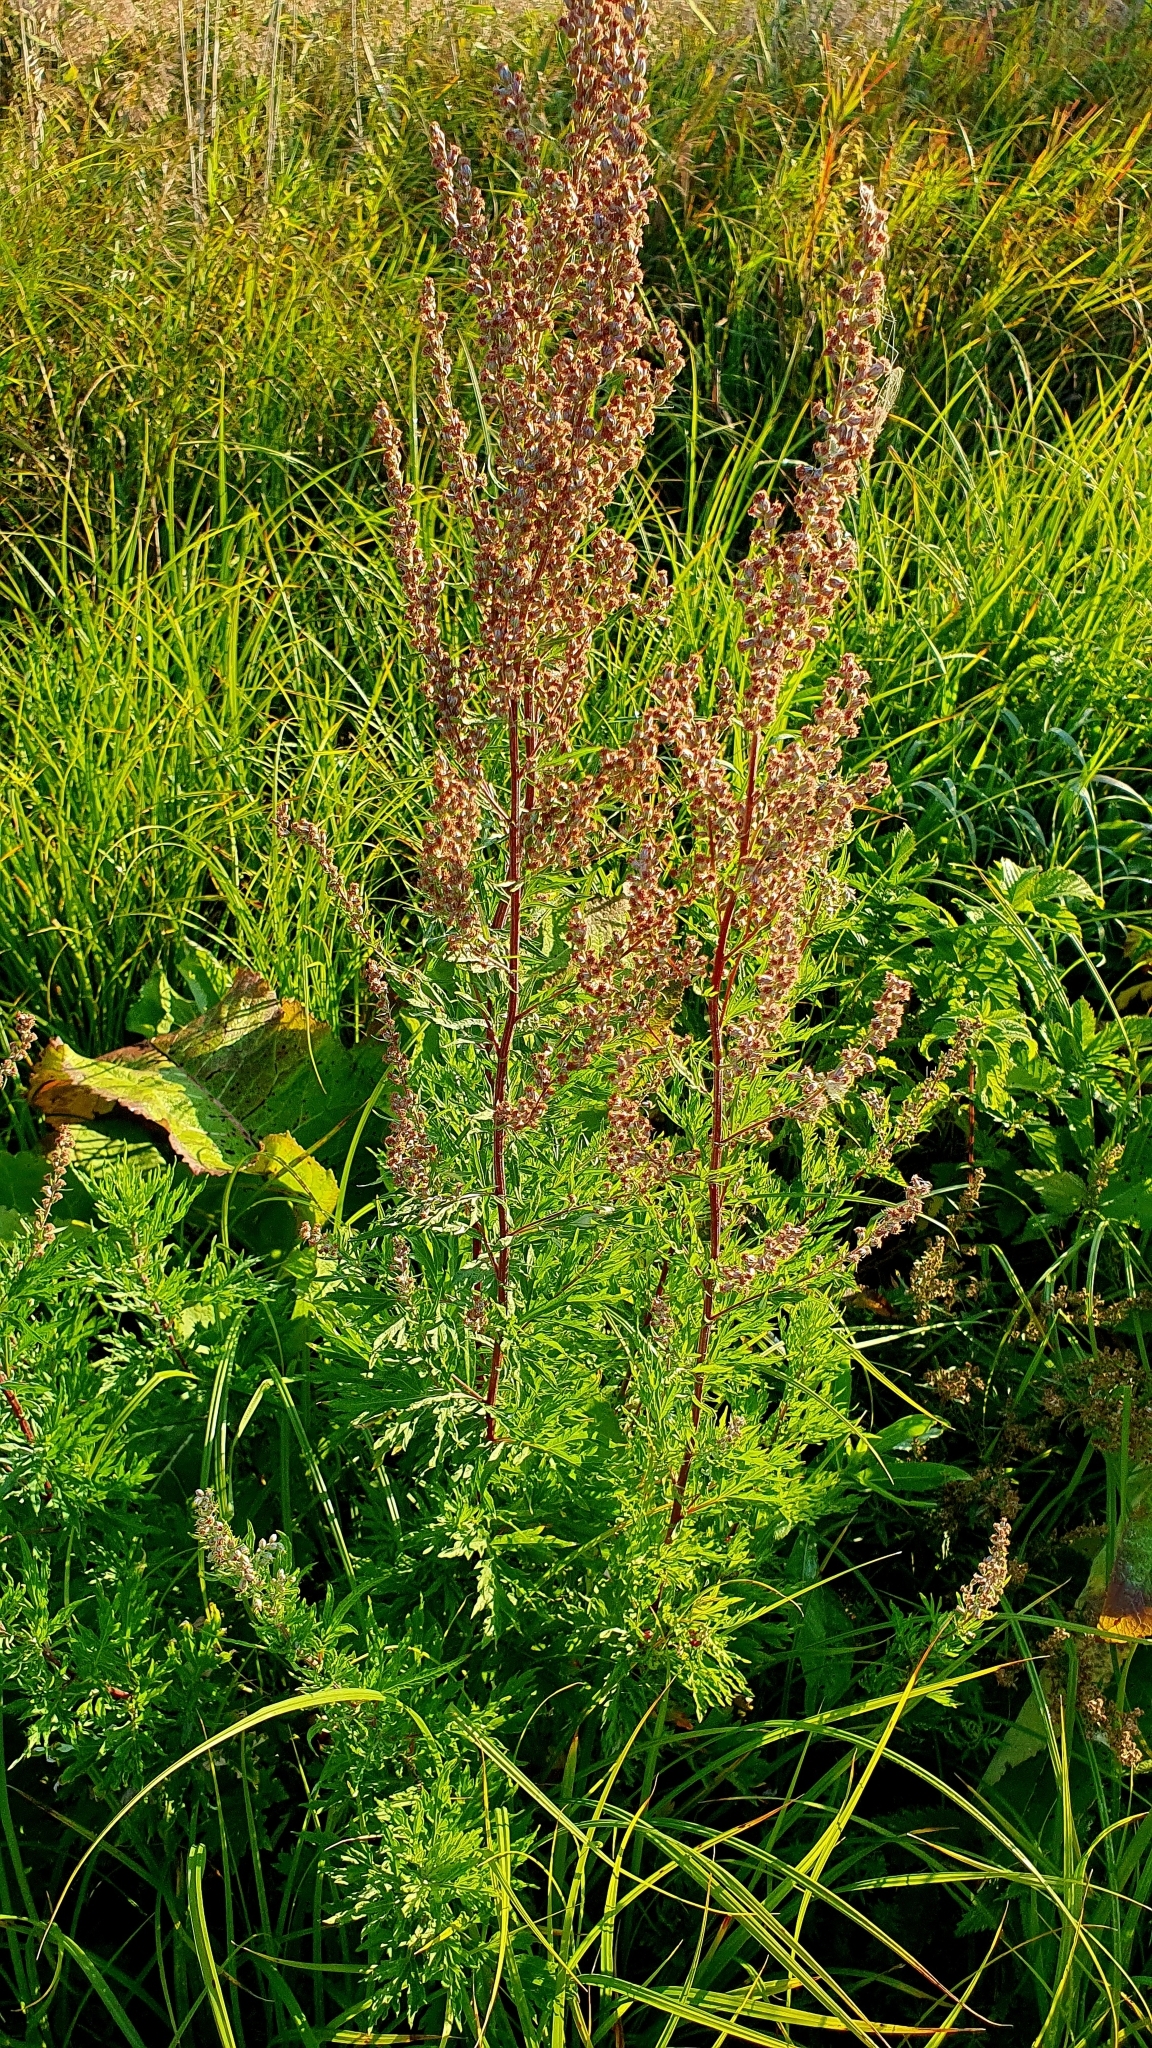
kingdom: Plantae
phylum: Tracheophyta
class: Magnoliopsida
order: Asterales
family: Asteraceae
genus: Artemisia
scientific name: Artemisia vulgaris
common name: Mugwort
